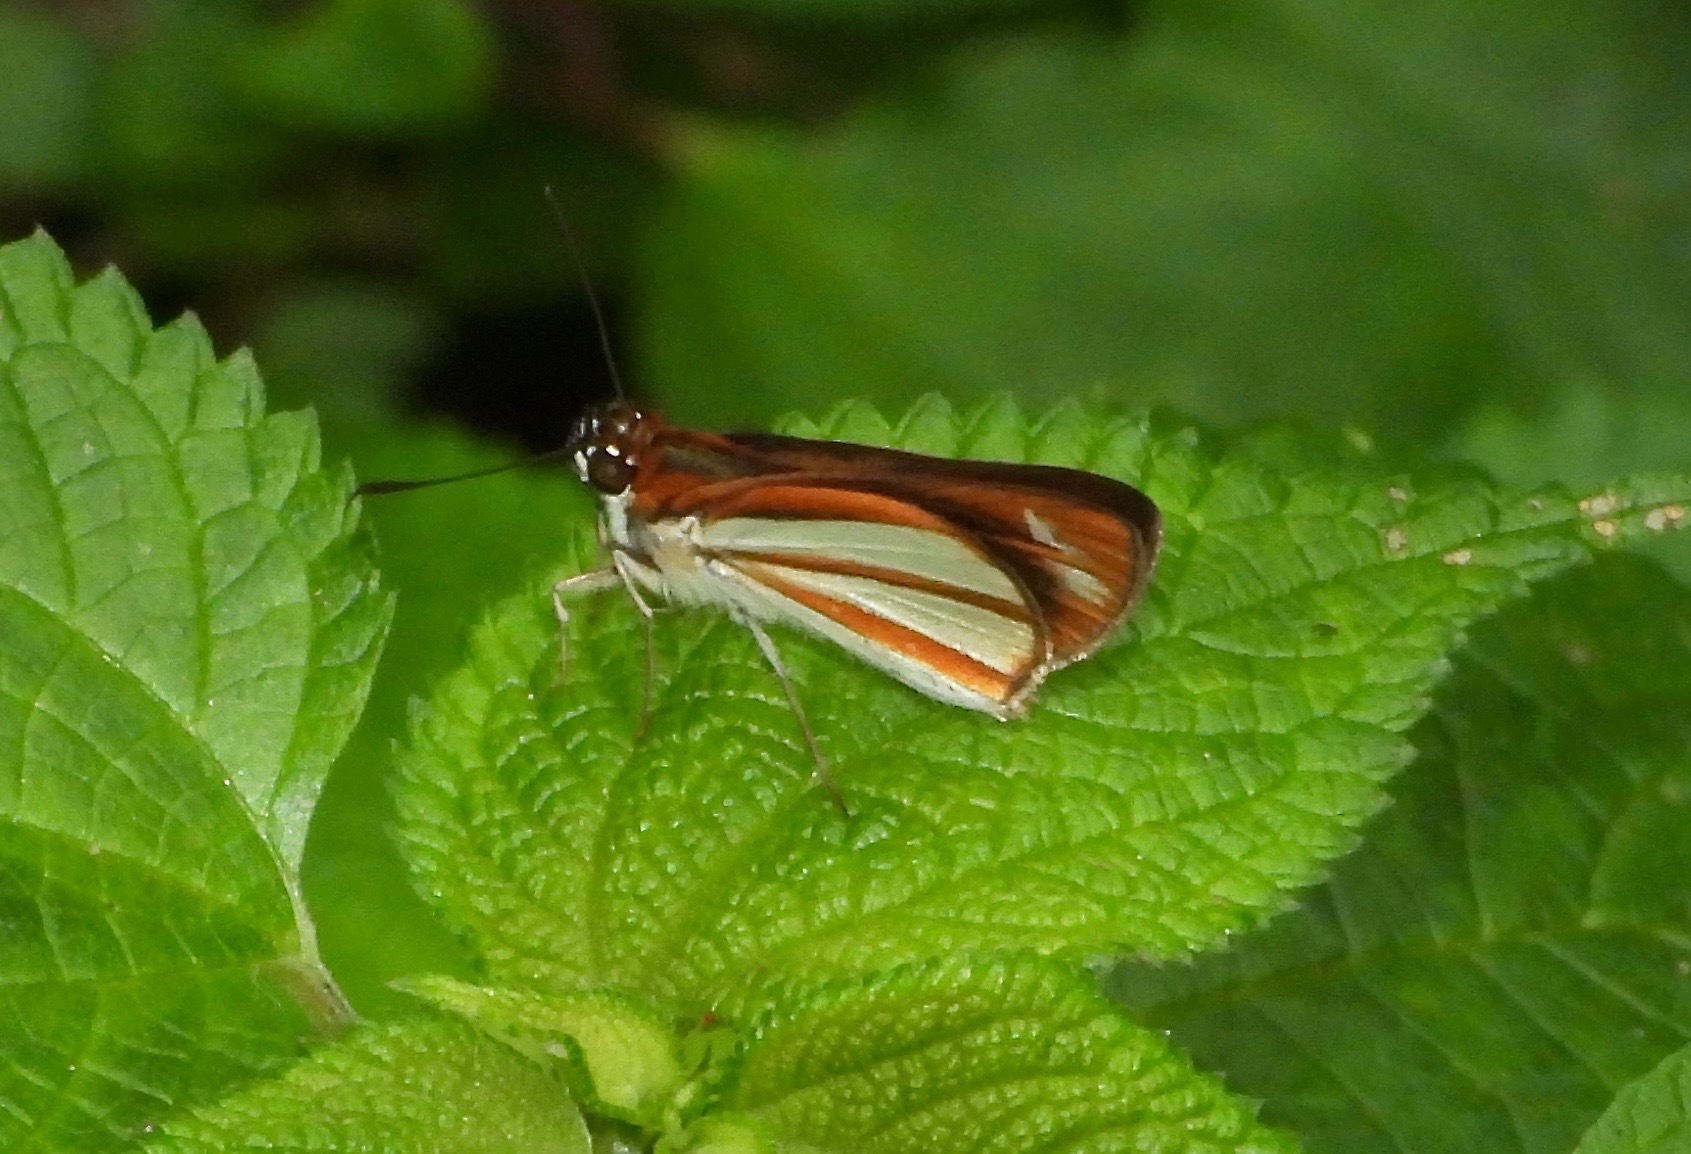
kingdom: Animalia
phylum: Arthropoda
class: Insecta
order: Lepidoptera
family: Hesperiidae
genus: Corra
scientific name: Corra
